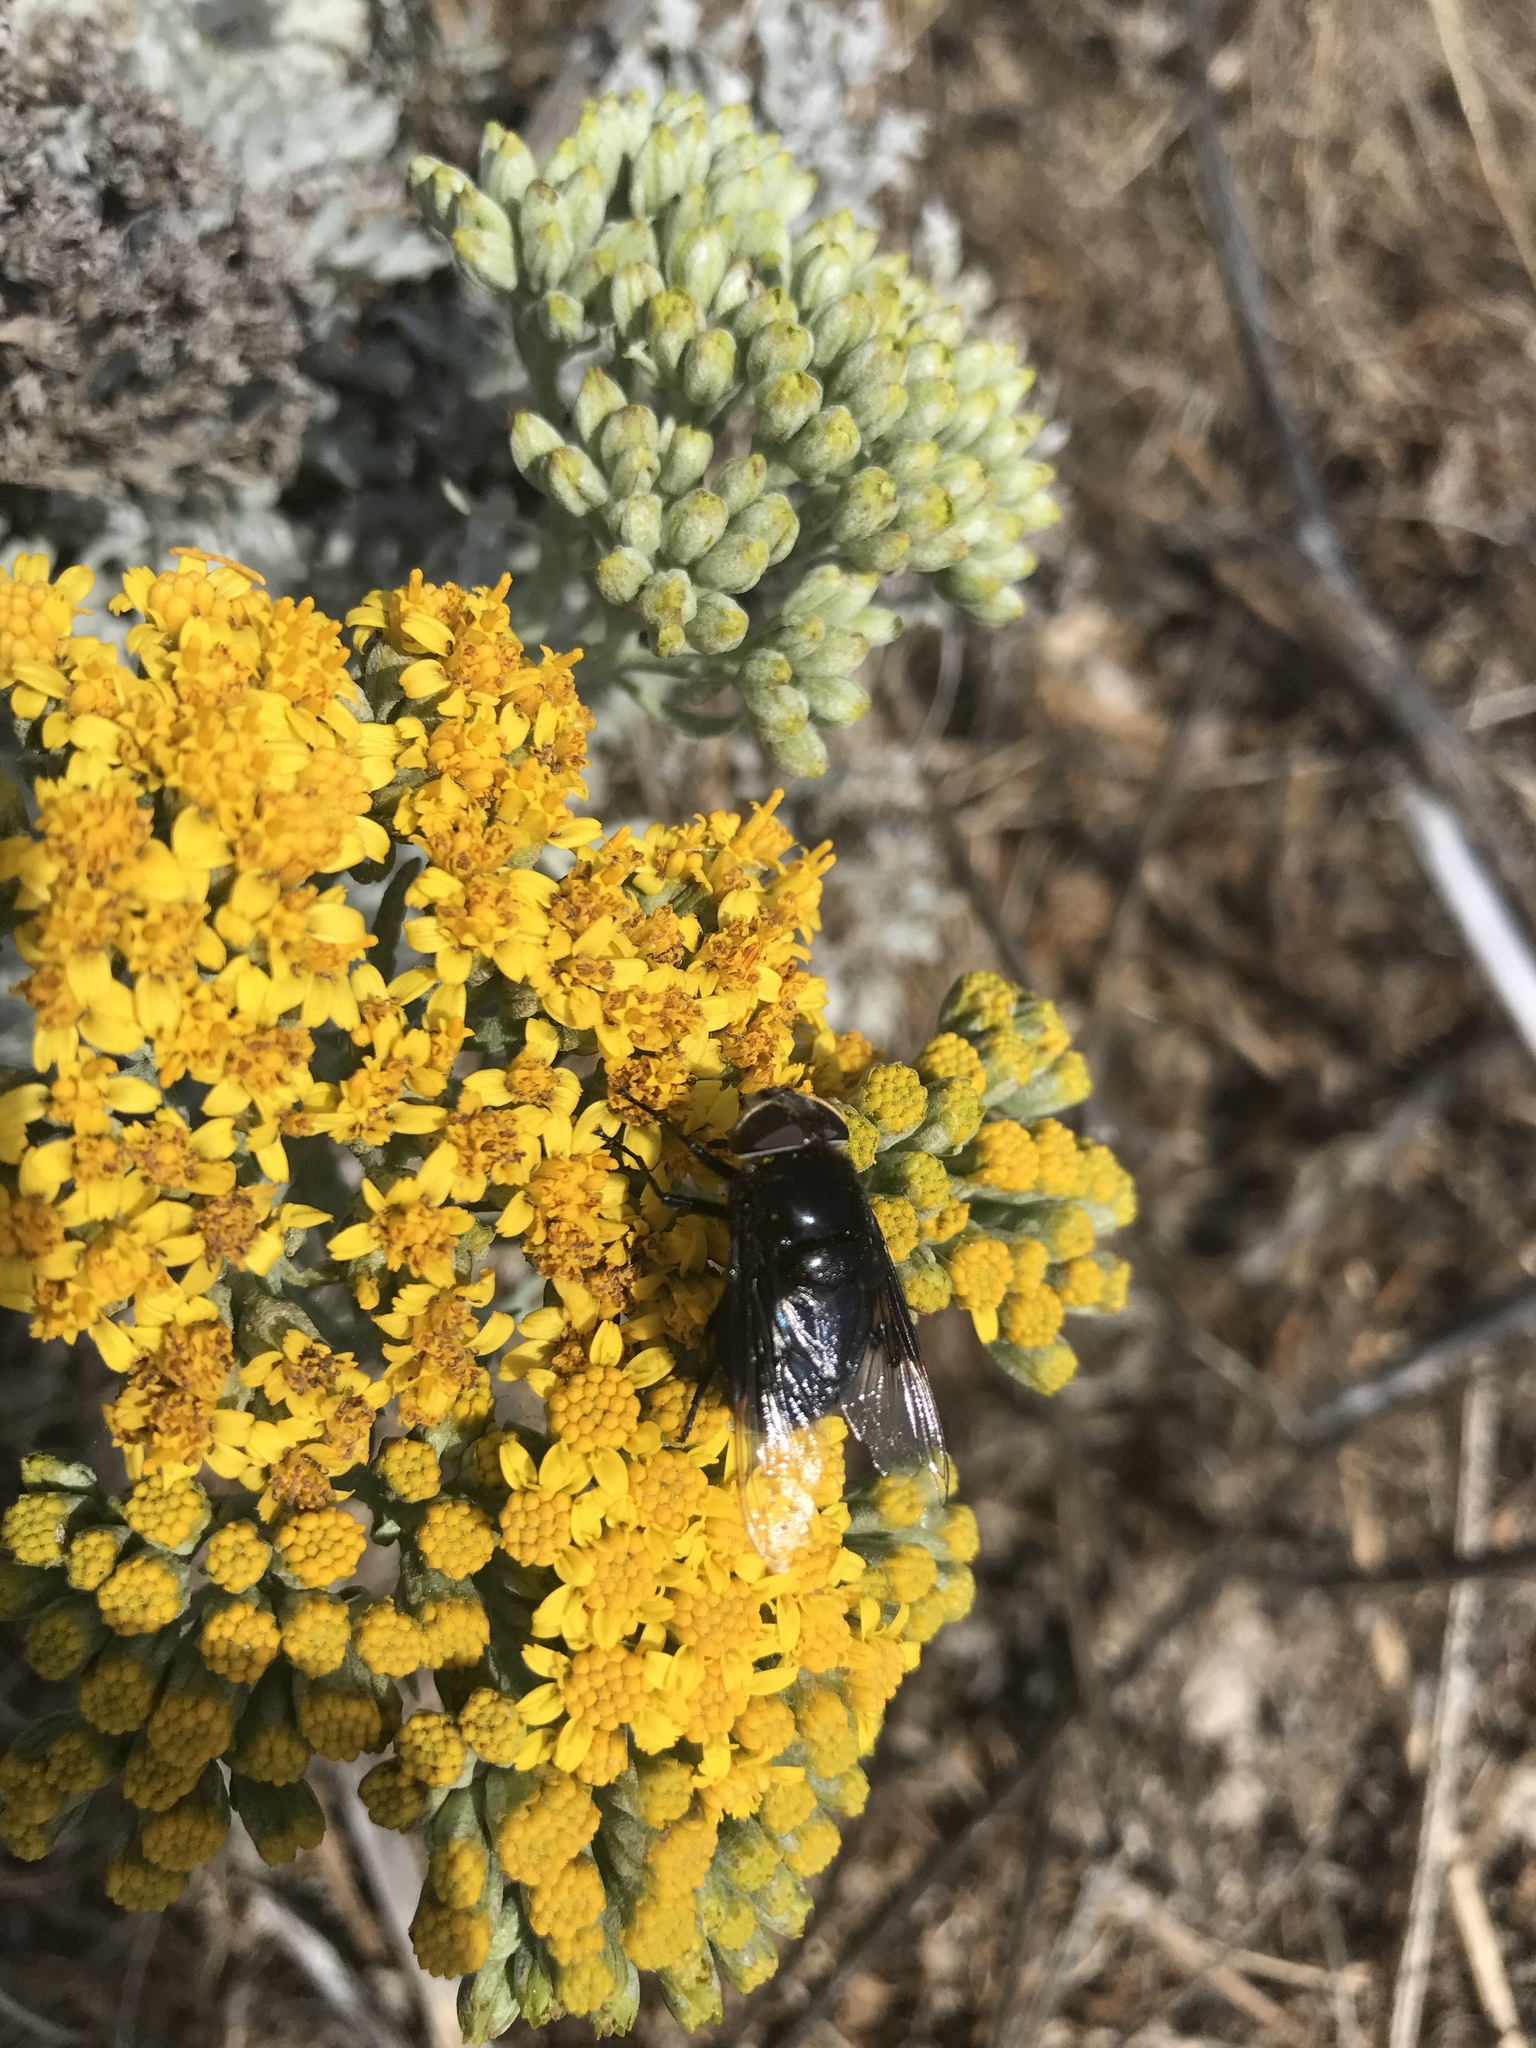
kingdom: Plantae
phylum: Tracheophyta
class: Magnoliopsida
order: Asterales
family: Asteraceae
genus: Constancea
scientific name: Constancea nevinii
